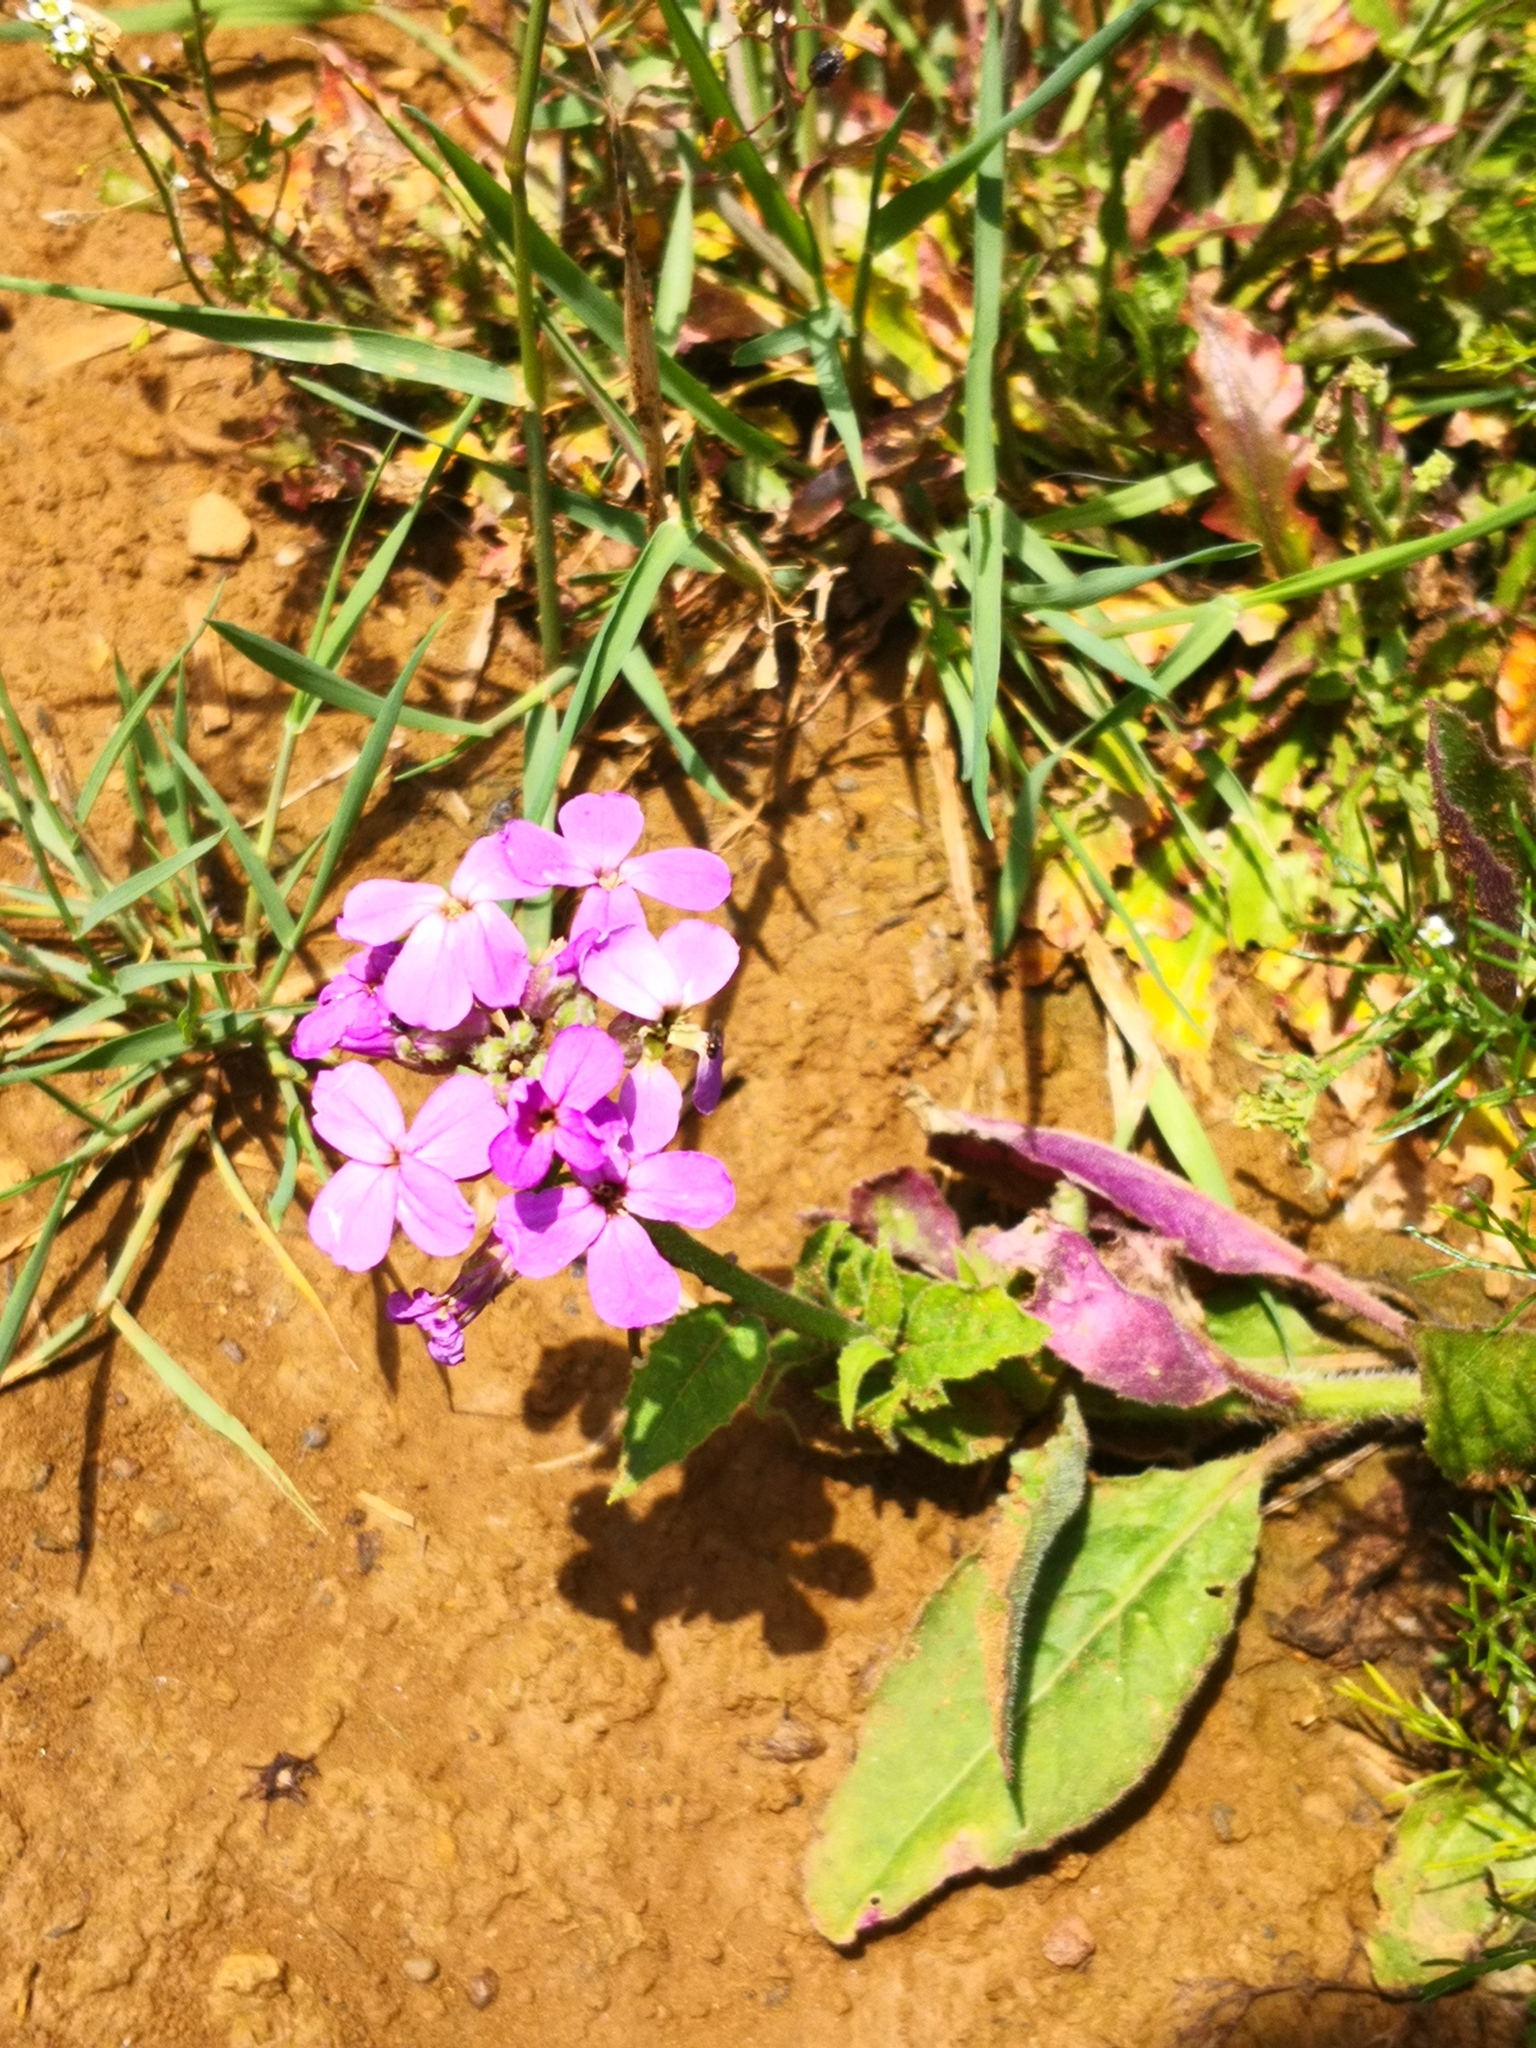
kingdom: Plantae
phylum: Tracheophyta
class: Magnoliopsida
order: Brassicales
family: Brassicaceae
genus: Hesperis
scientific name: Hesperis matronalis
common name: Dame's-violet
